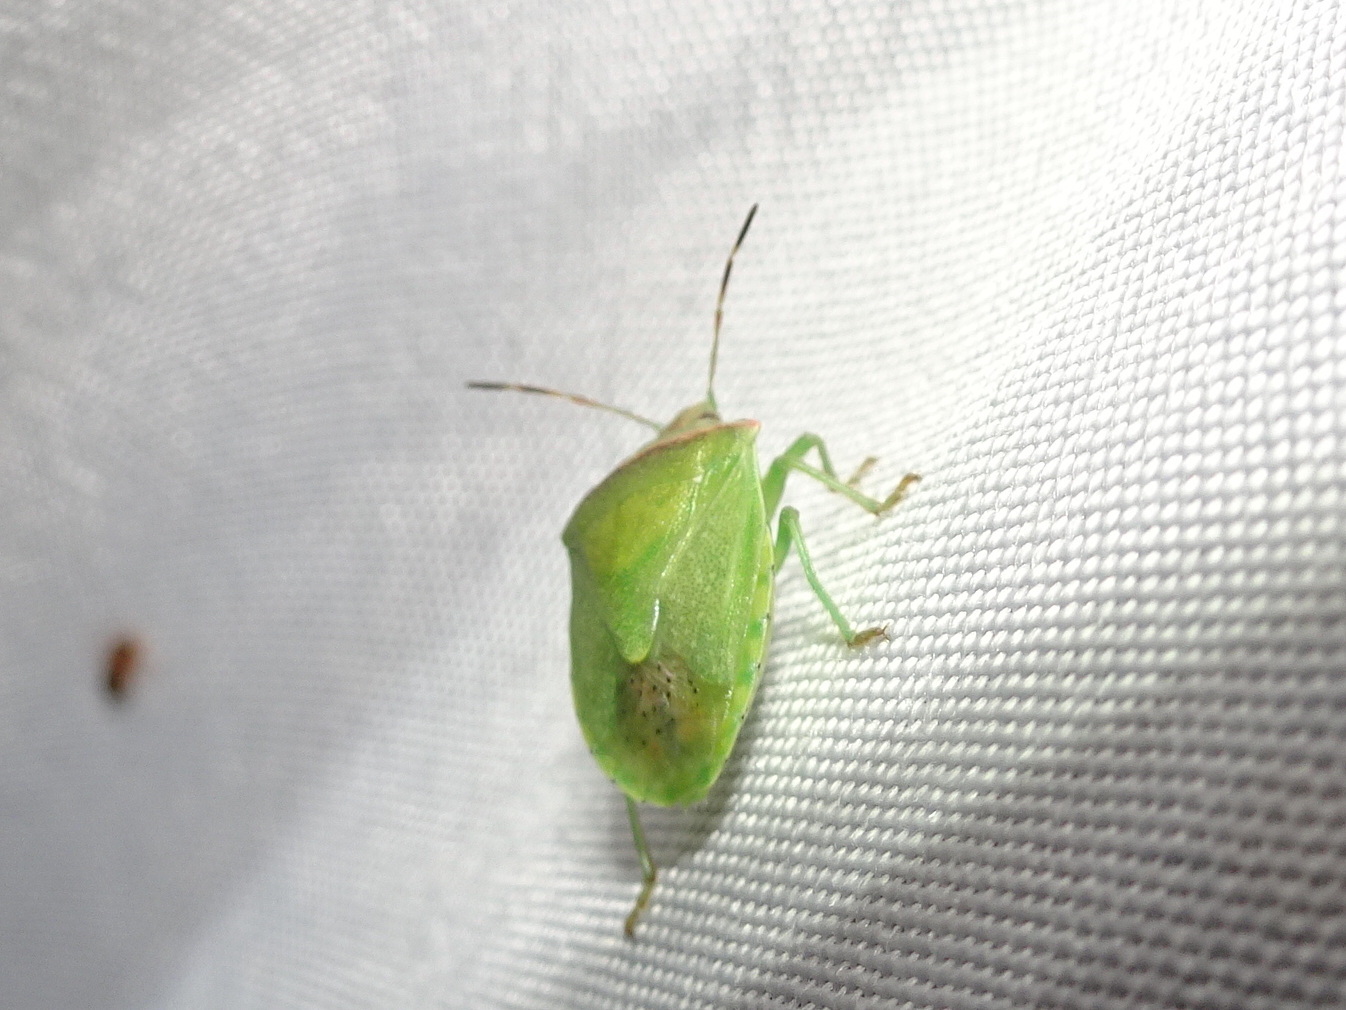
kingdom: Animalia
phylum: Arthropoda
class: Insecta
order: Hemiptera
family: Pentatomidae
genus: Thyanta
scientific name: Thyanta calceata
